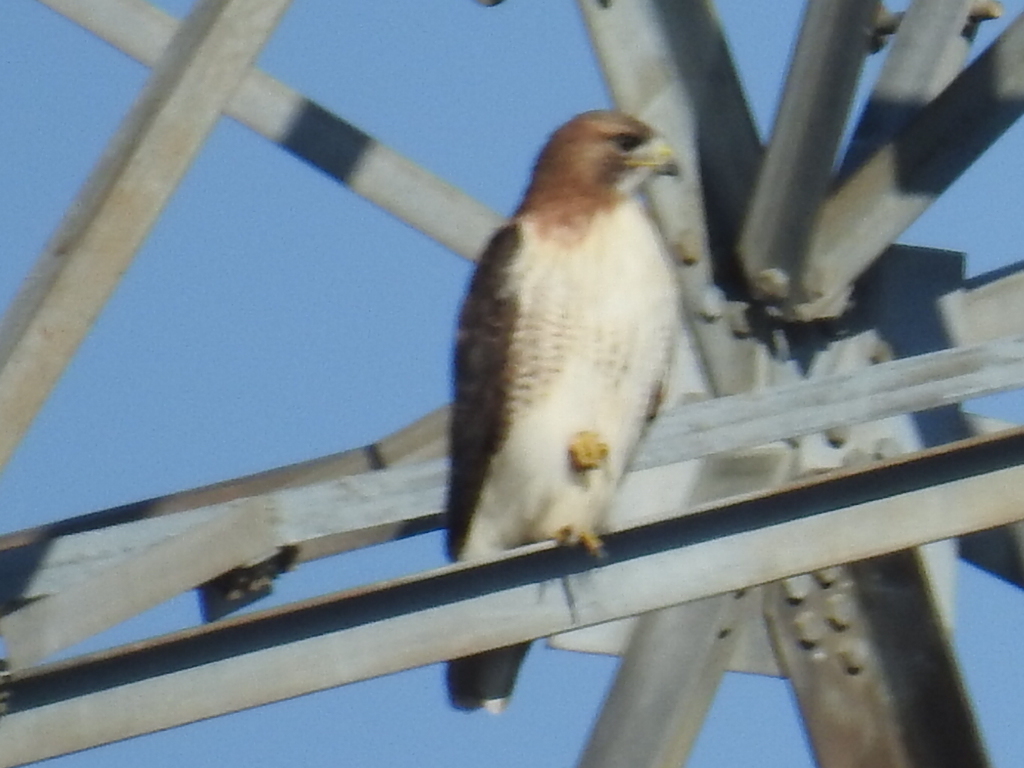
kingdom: Animalia
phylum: Chordata
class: Aves
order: Accipitriformes
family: Accipitridae
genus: Buteo
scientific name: Buteo jamaicensis
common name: Red-tailed hawk
